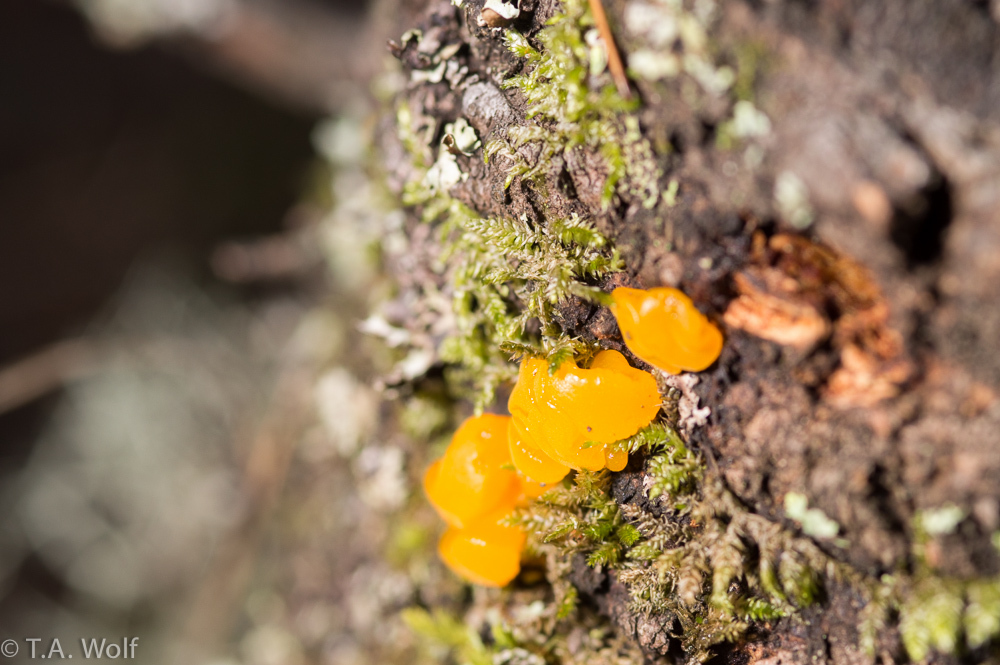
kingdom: Fungi
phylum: Basidiomycota
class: Tremellomycetes
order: Tremellales
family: Tremellaceae
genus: Tremella
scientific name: Tremella mesenterica
